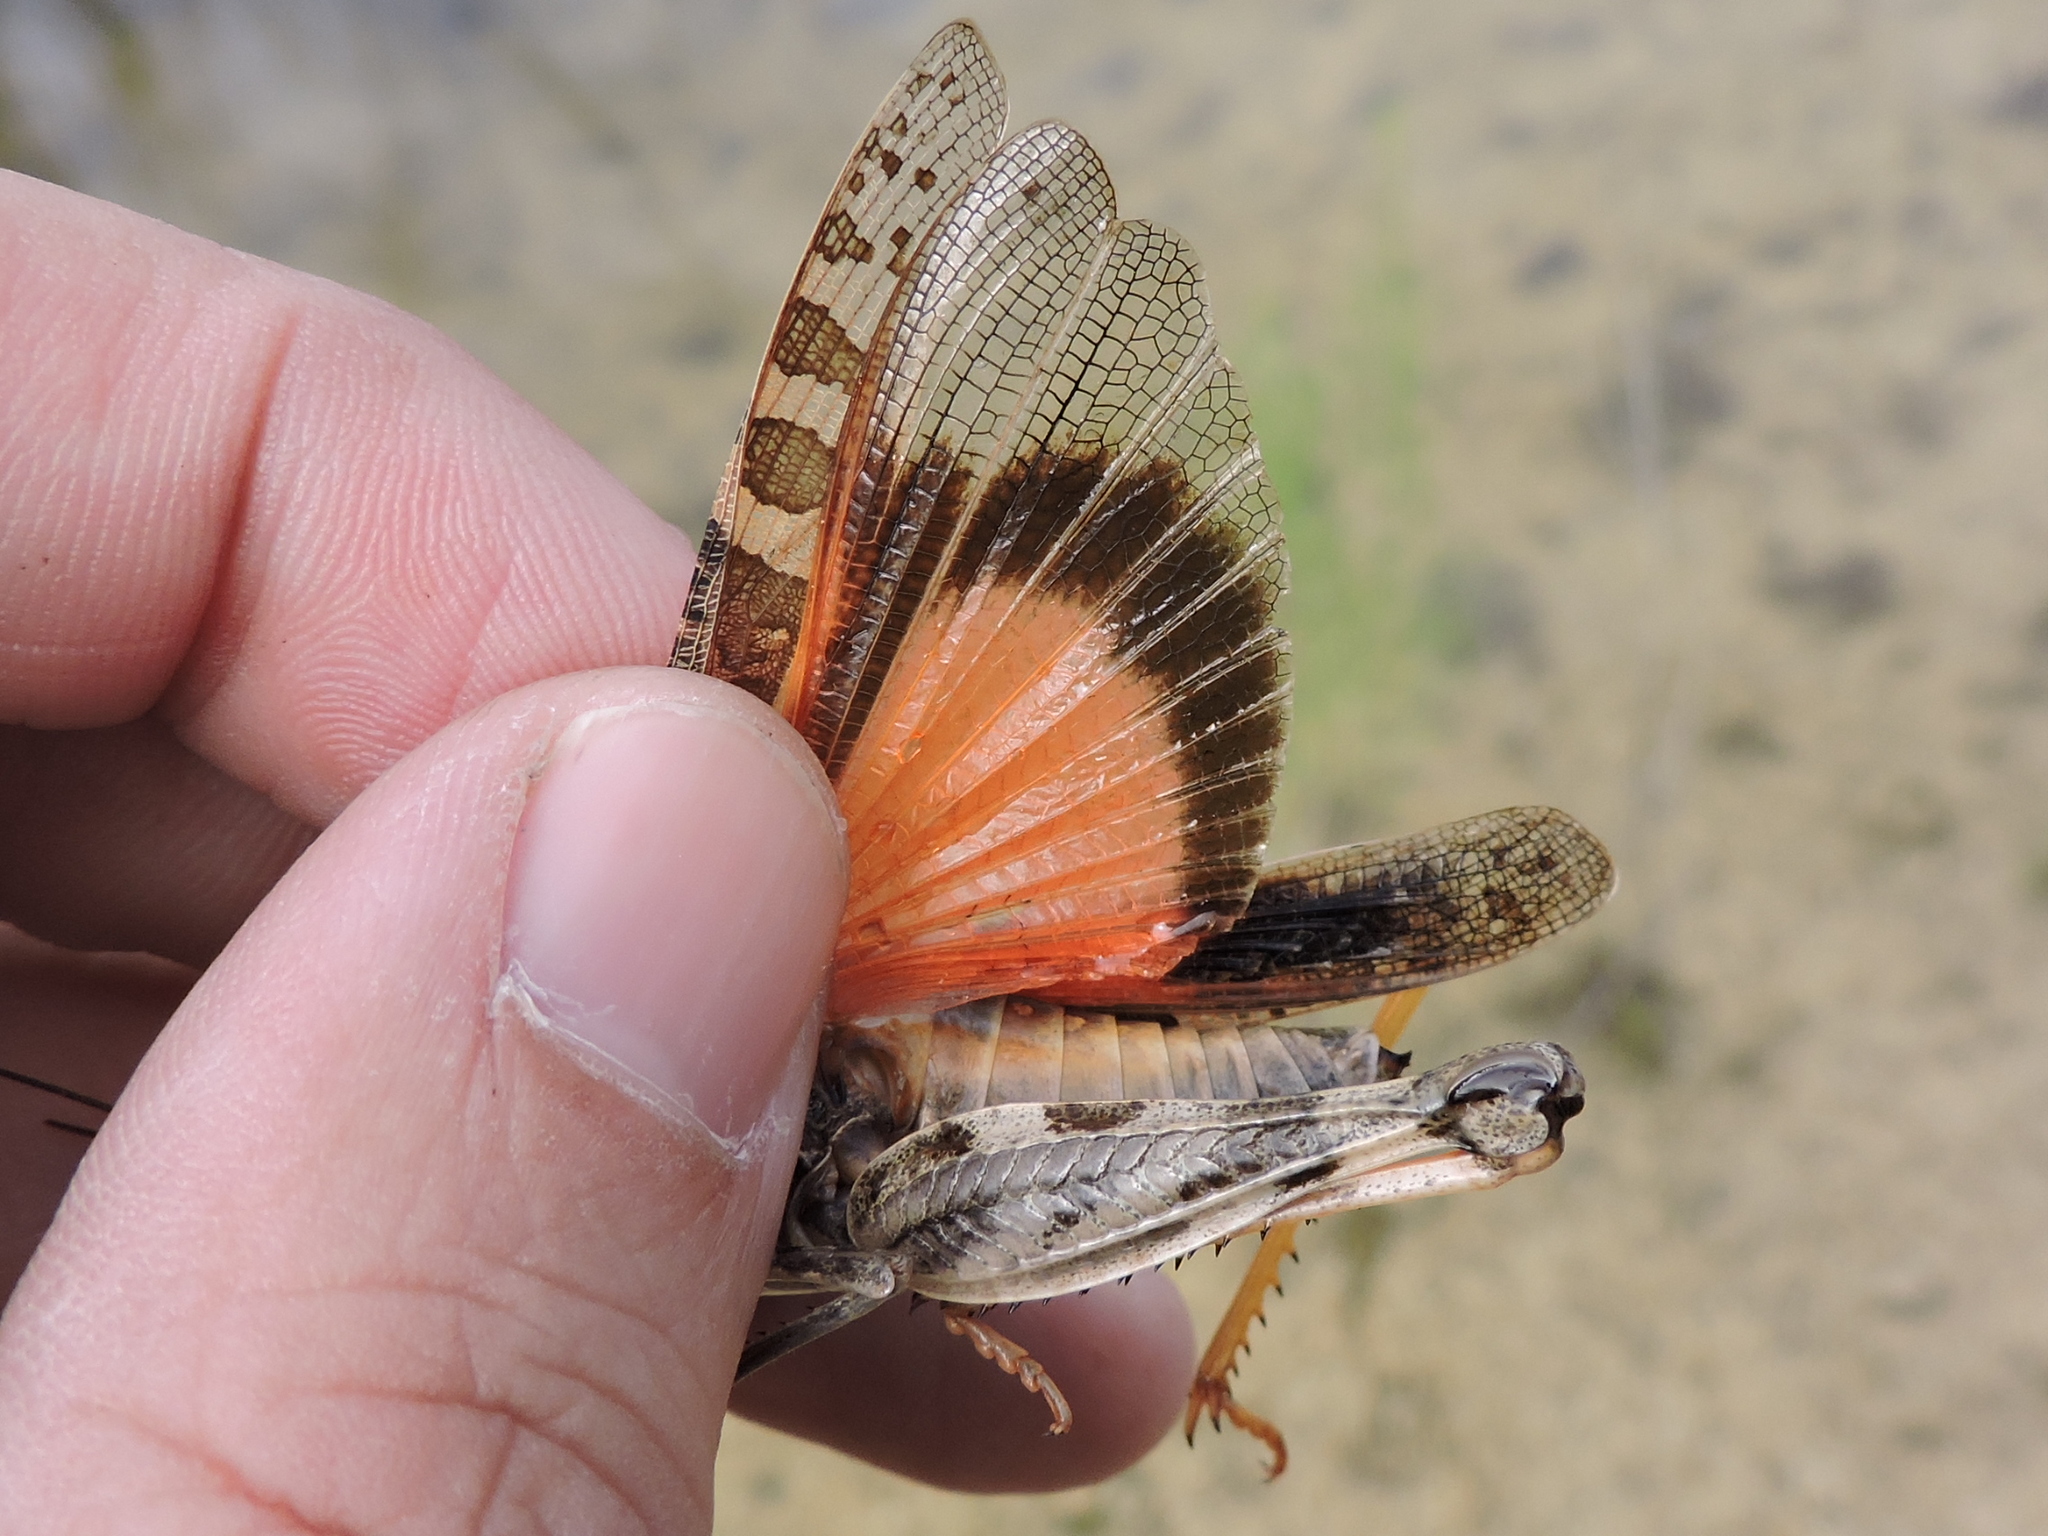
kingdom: Animalia
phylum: Arthropoda
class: Insecta
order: Orthoptera
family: Acrididae
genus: Hippiscus
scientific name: Hippiscus ocelote
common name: Wrinkled grasshopper
